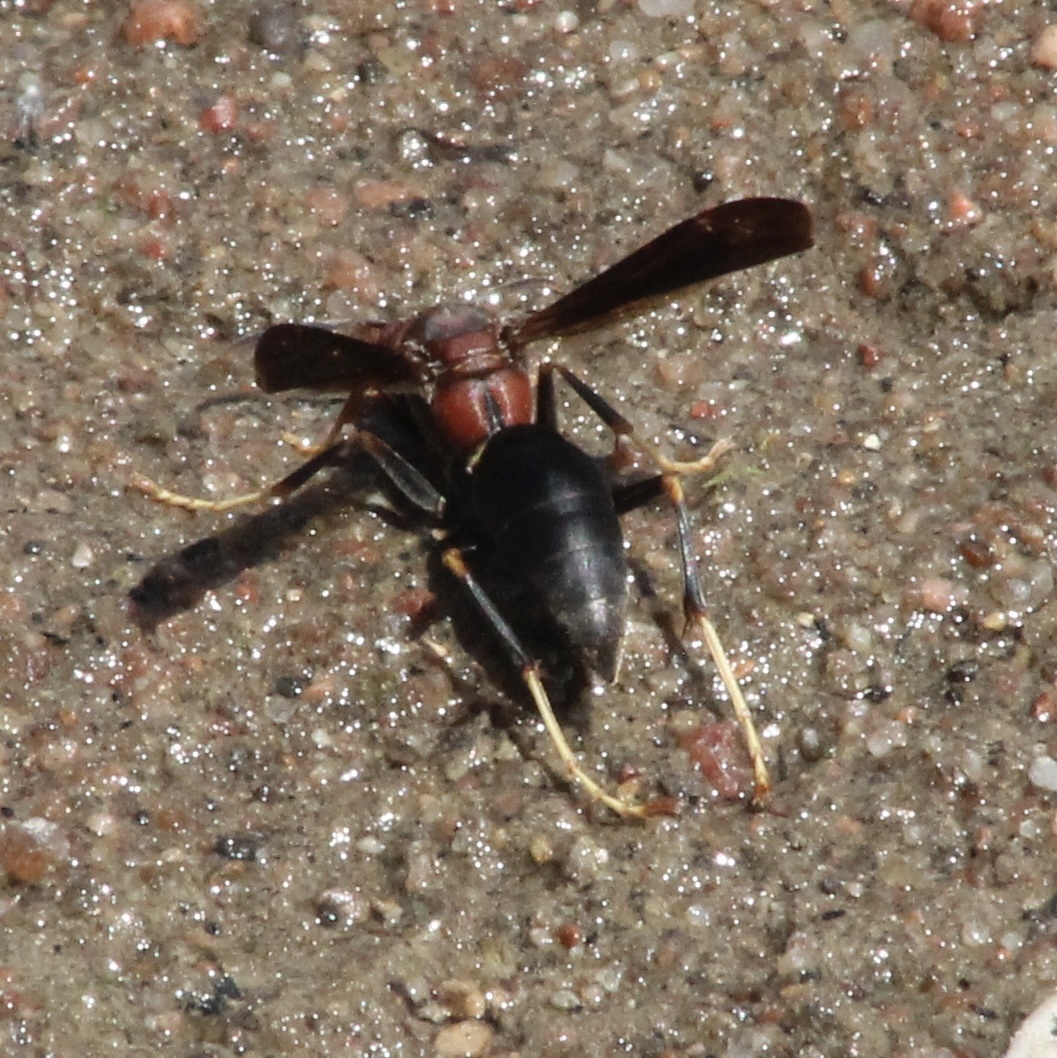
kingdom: Animalia
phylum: Arthropoda
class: Insecta
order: Hymenoptera
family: Eumenidae
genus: Polistes
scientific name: Polistes metricus
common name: Metric paper wasp
